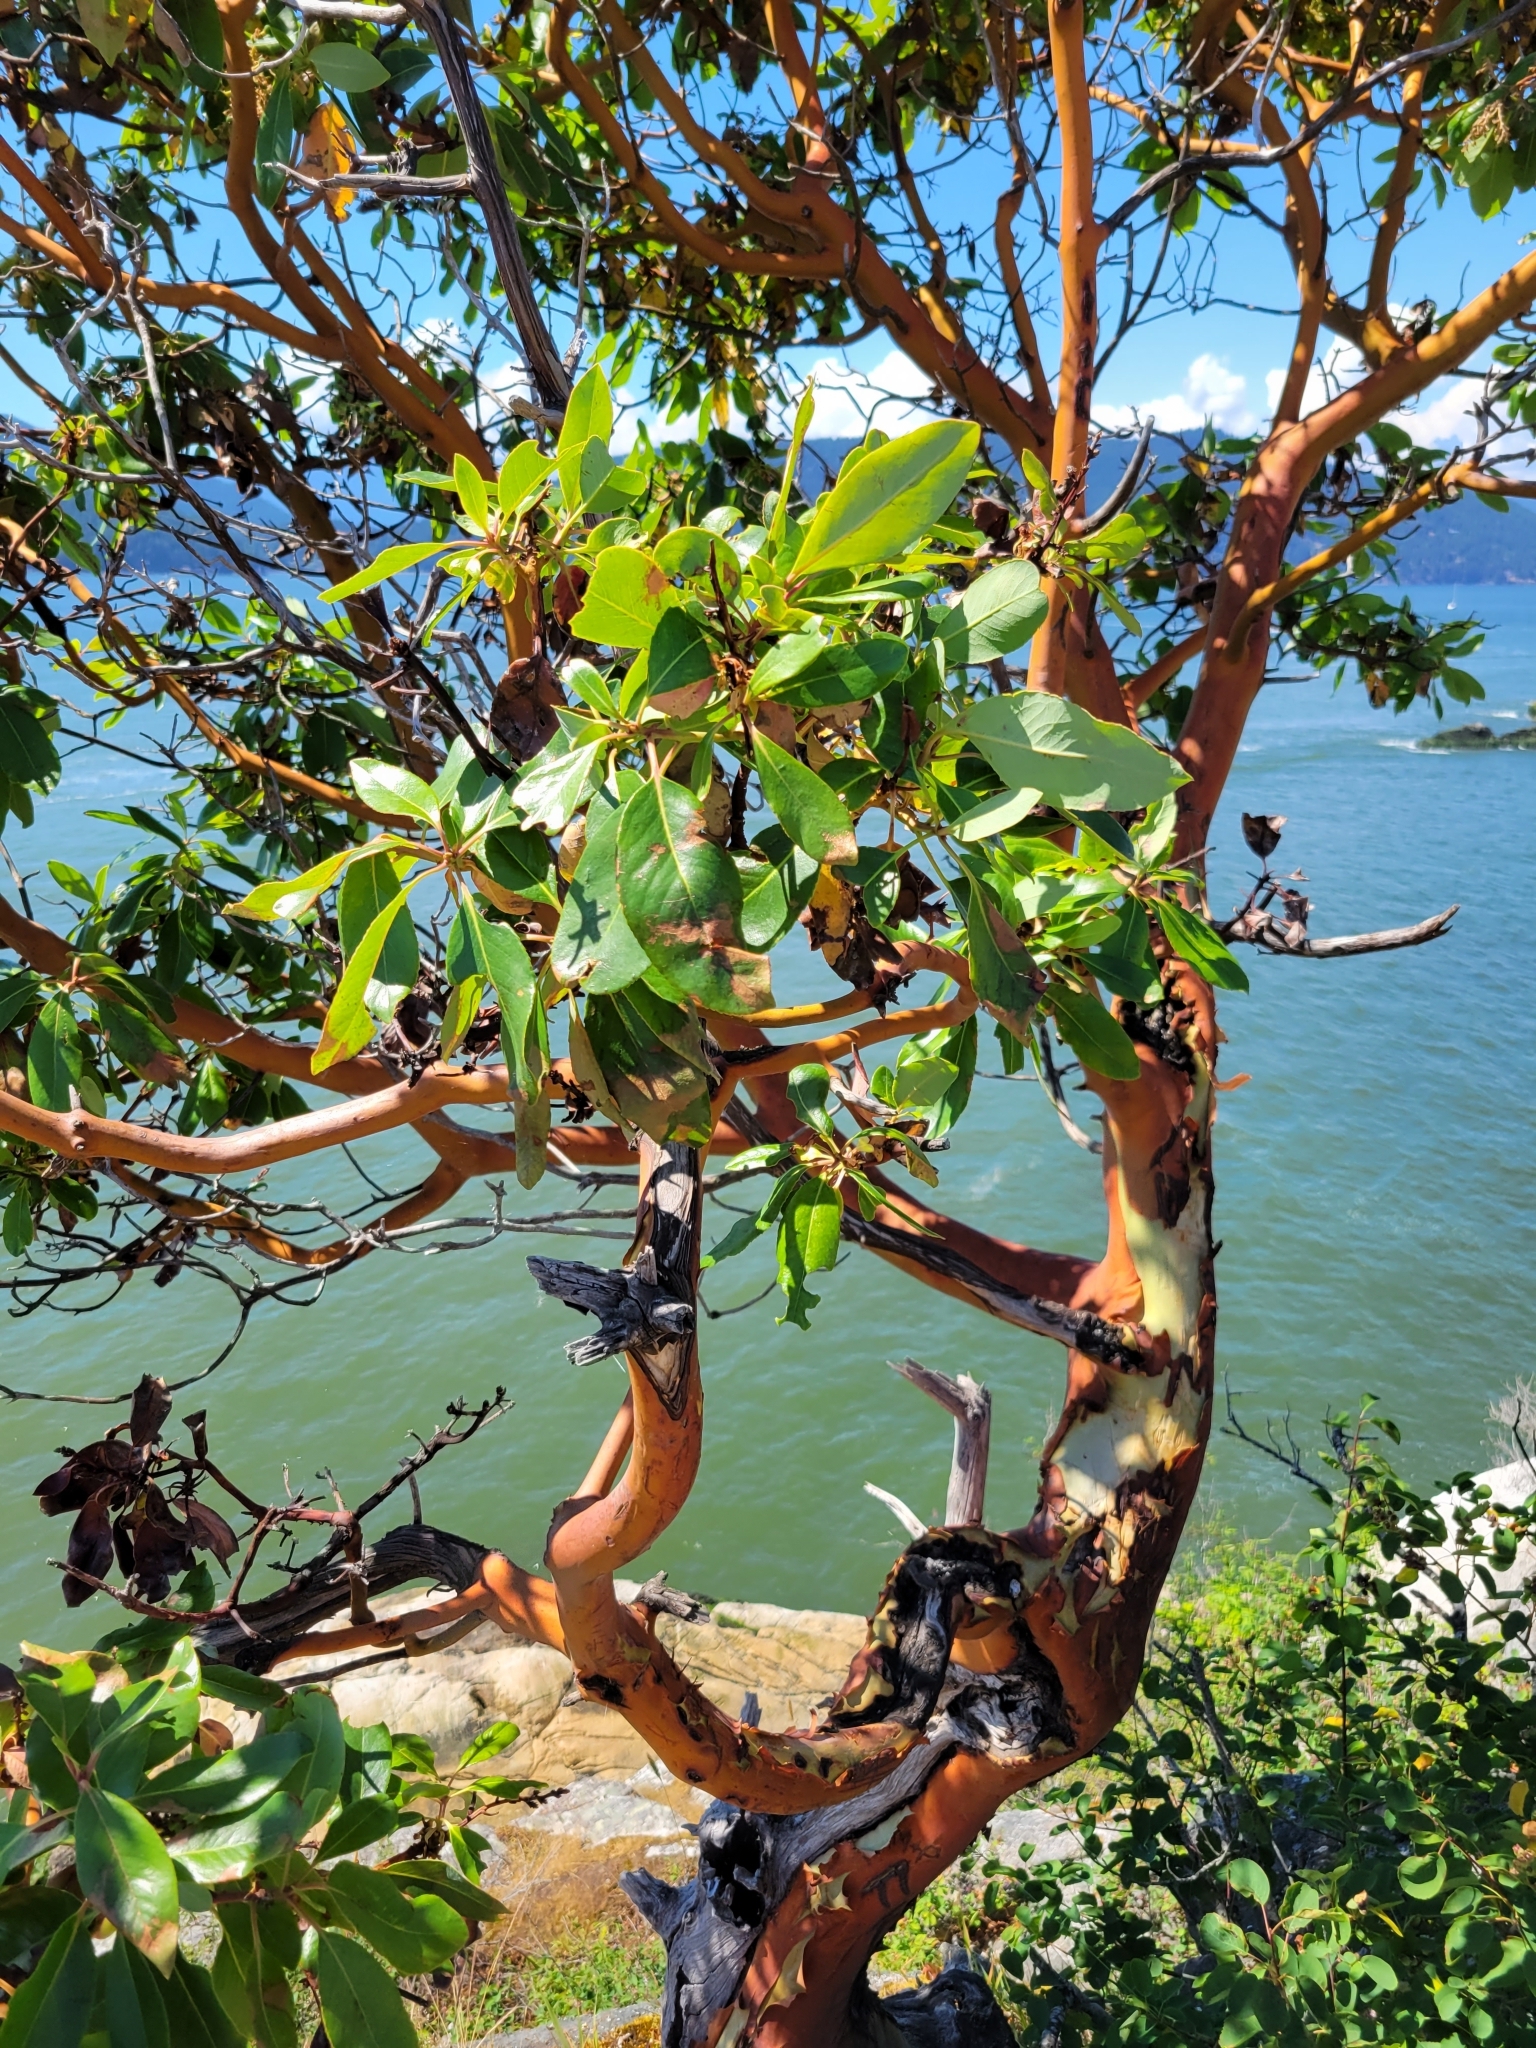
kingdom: Plantae
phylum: Tracheophyta
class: Magnoliopsida
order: Ericales
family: Ericaceae
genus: Arbutus
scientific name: Arbutus menziesii
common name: Pacific madrone
